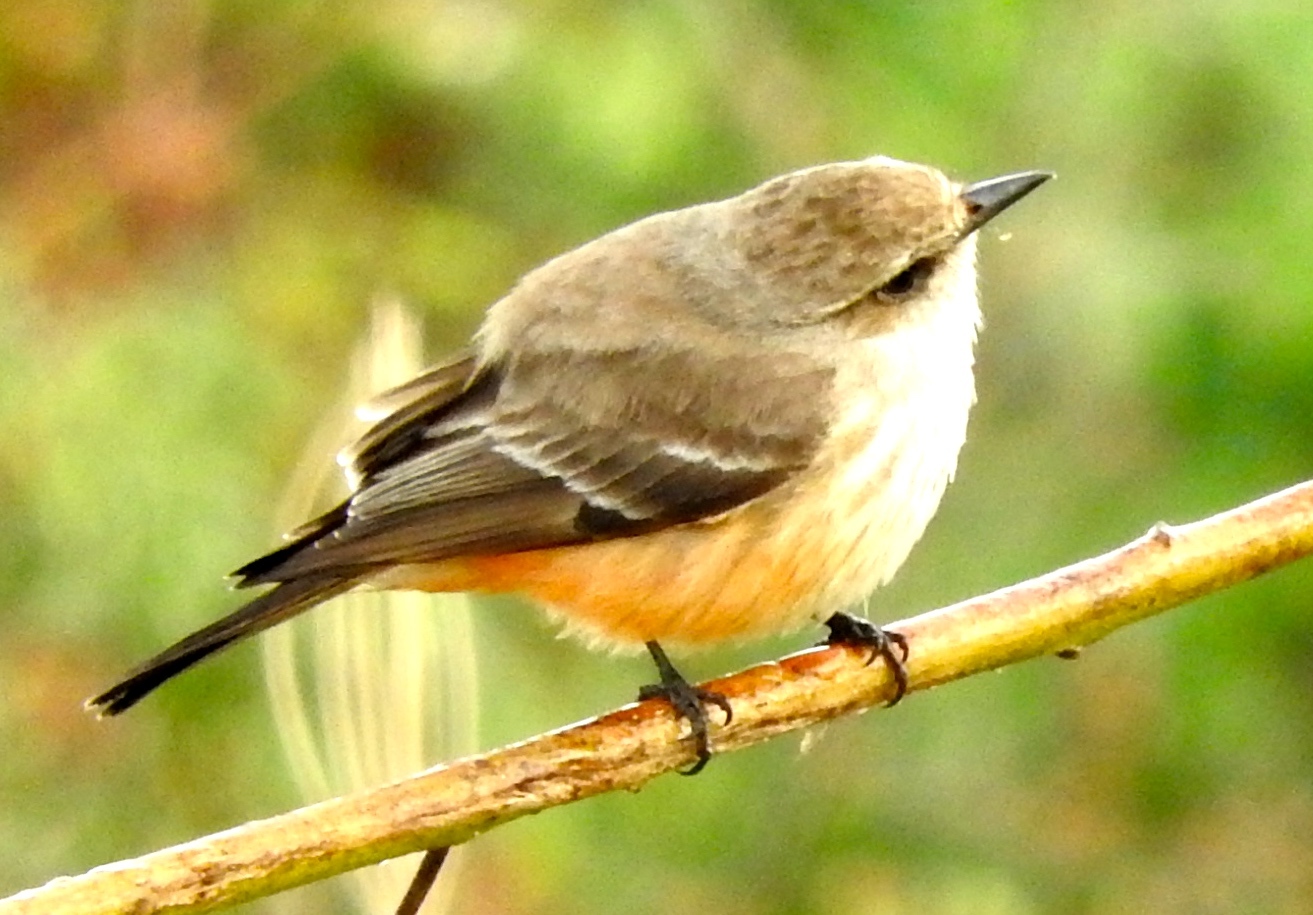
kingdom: Animalia
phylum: Chordata
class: Aves
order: Passeriformes
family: Tyrannidae
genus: Pyrocephalus
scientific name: Pyrocephalus rubinus
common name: Vermilion flycatcher
